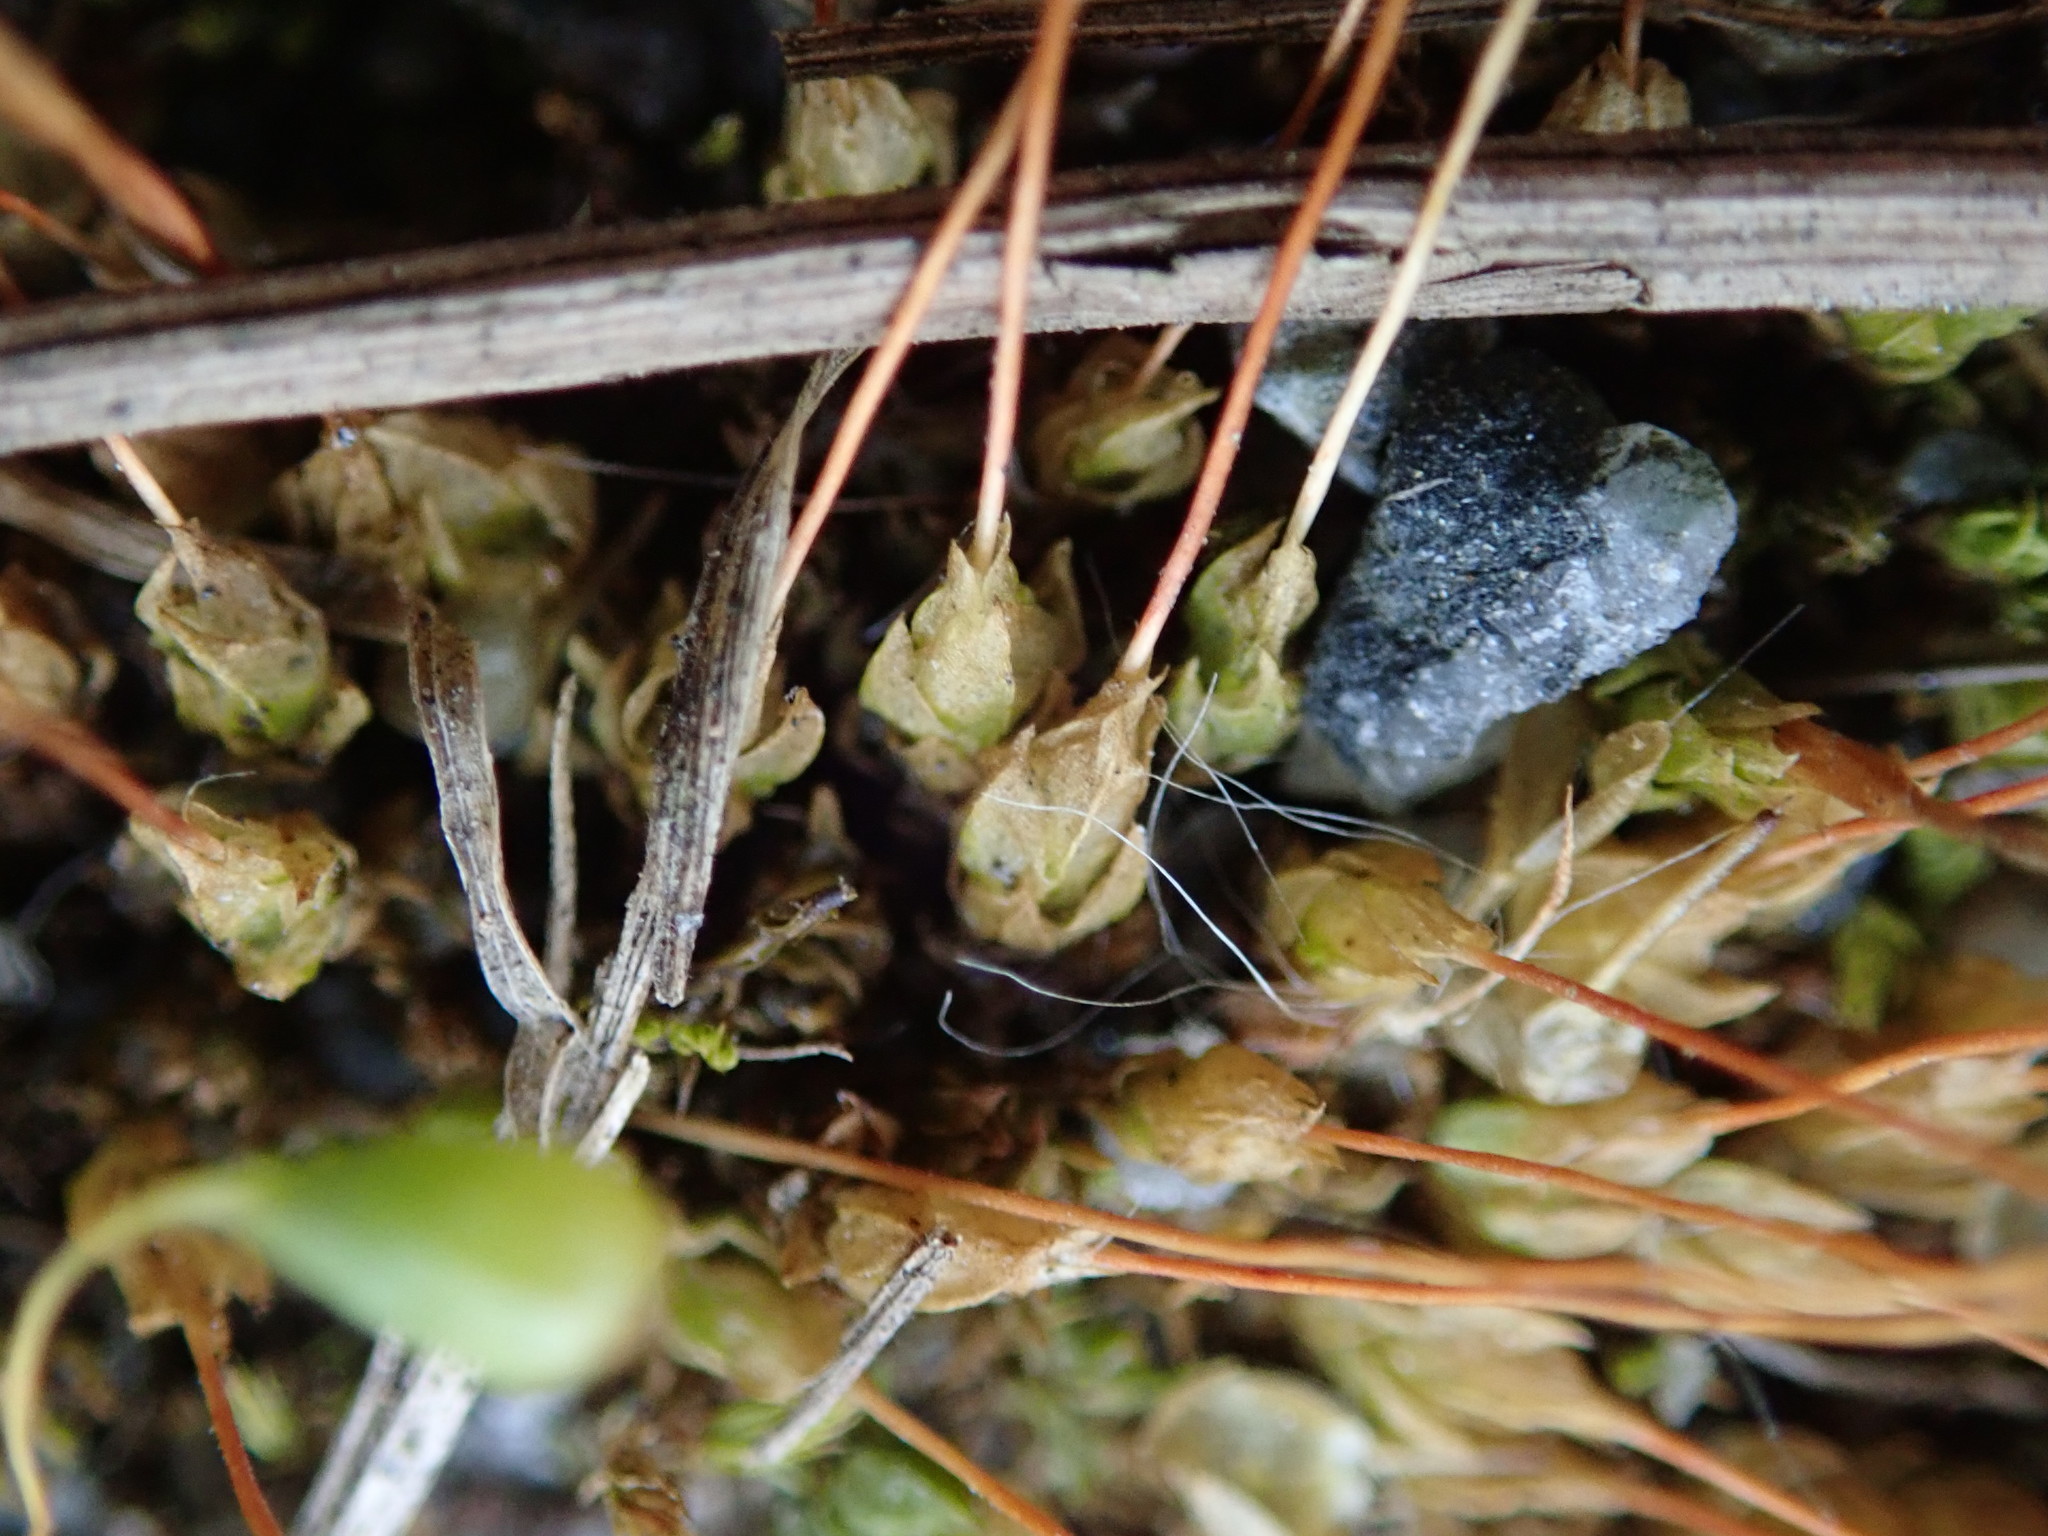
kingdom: Plantae
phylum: Bryophyta
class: Bryopsida
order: Funariales
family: Funariaceae
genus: Funaria
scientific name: Funaria hygrometrica
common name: Common cord moss
